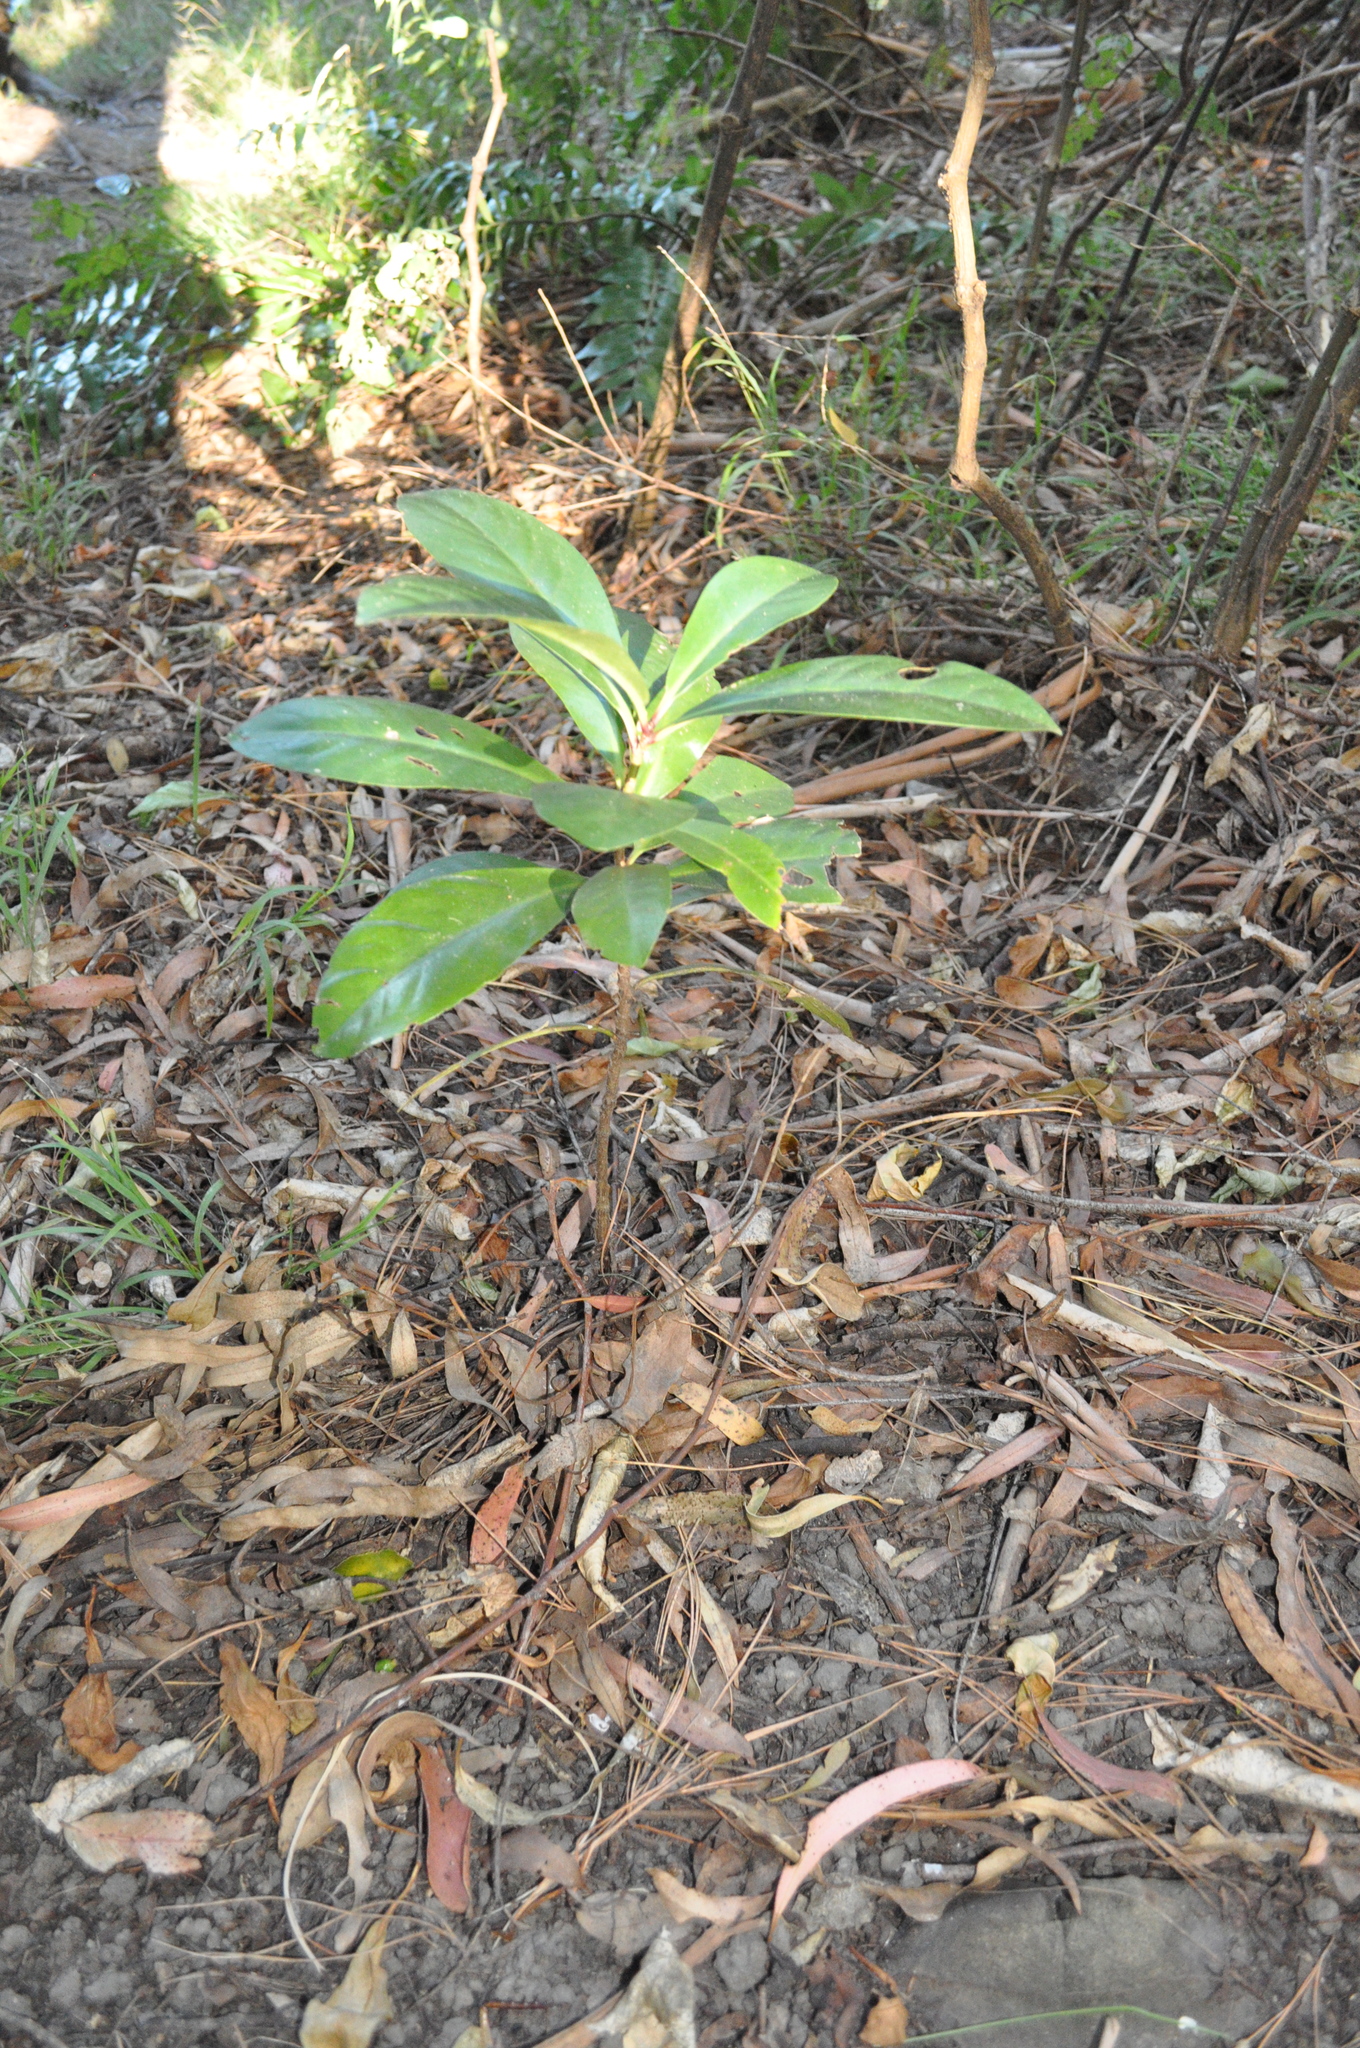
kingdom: Plantae
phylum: Tracheophyta
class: Magnoliopsida
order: Cucurbitales
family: Corynocarpaceae
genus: Corynocarpus
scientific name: Corynocarpus laevigatus
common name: New zealand laurel
